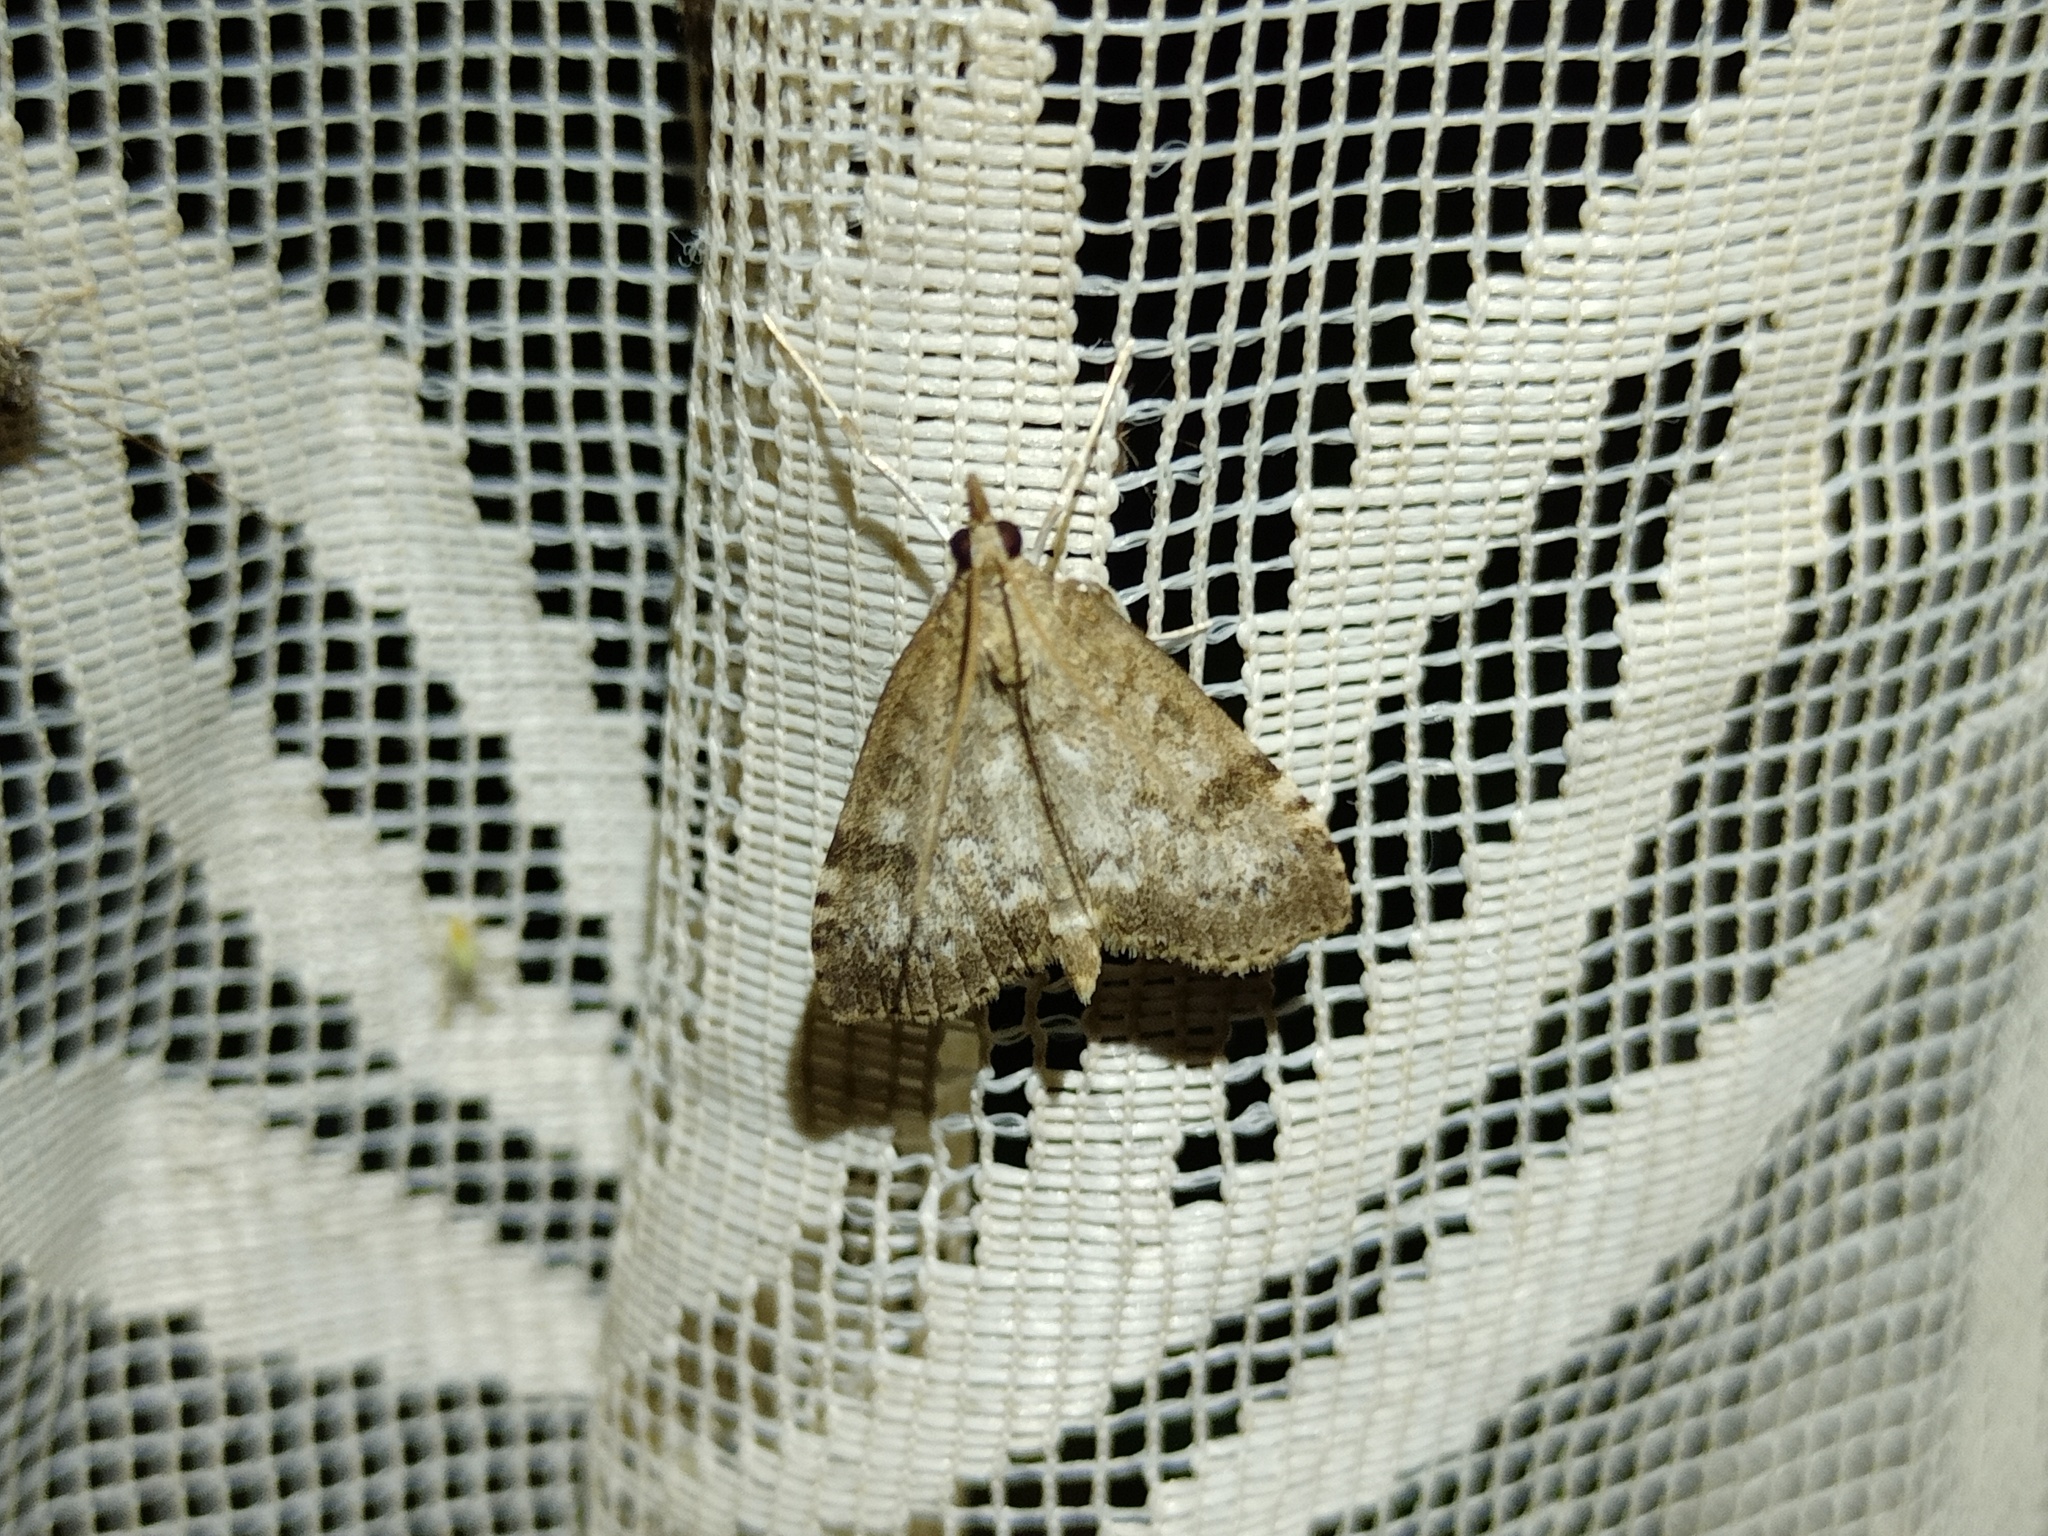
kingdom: Animalia
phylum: Arthropoda
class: Insecta
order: Lepidoptera
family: Crambidae
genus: Udea
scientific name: Udea prunalis
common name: Dusky pearl
